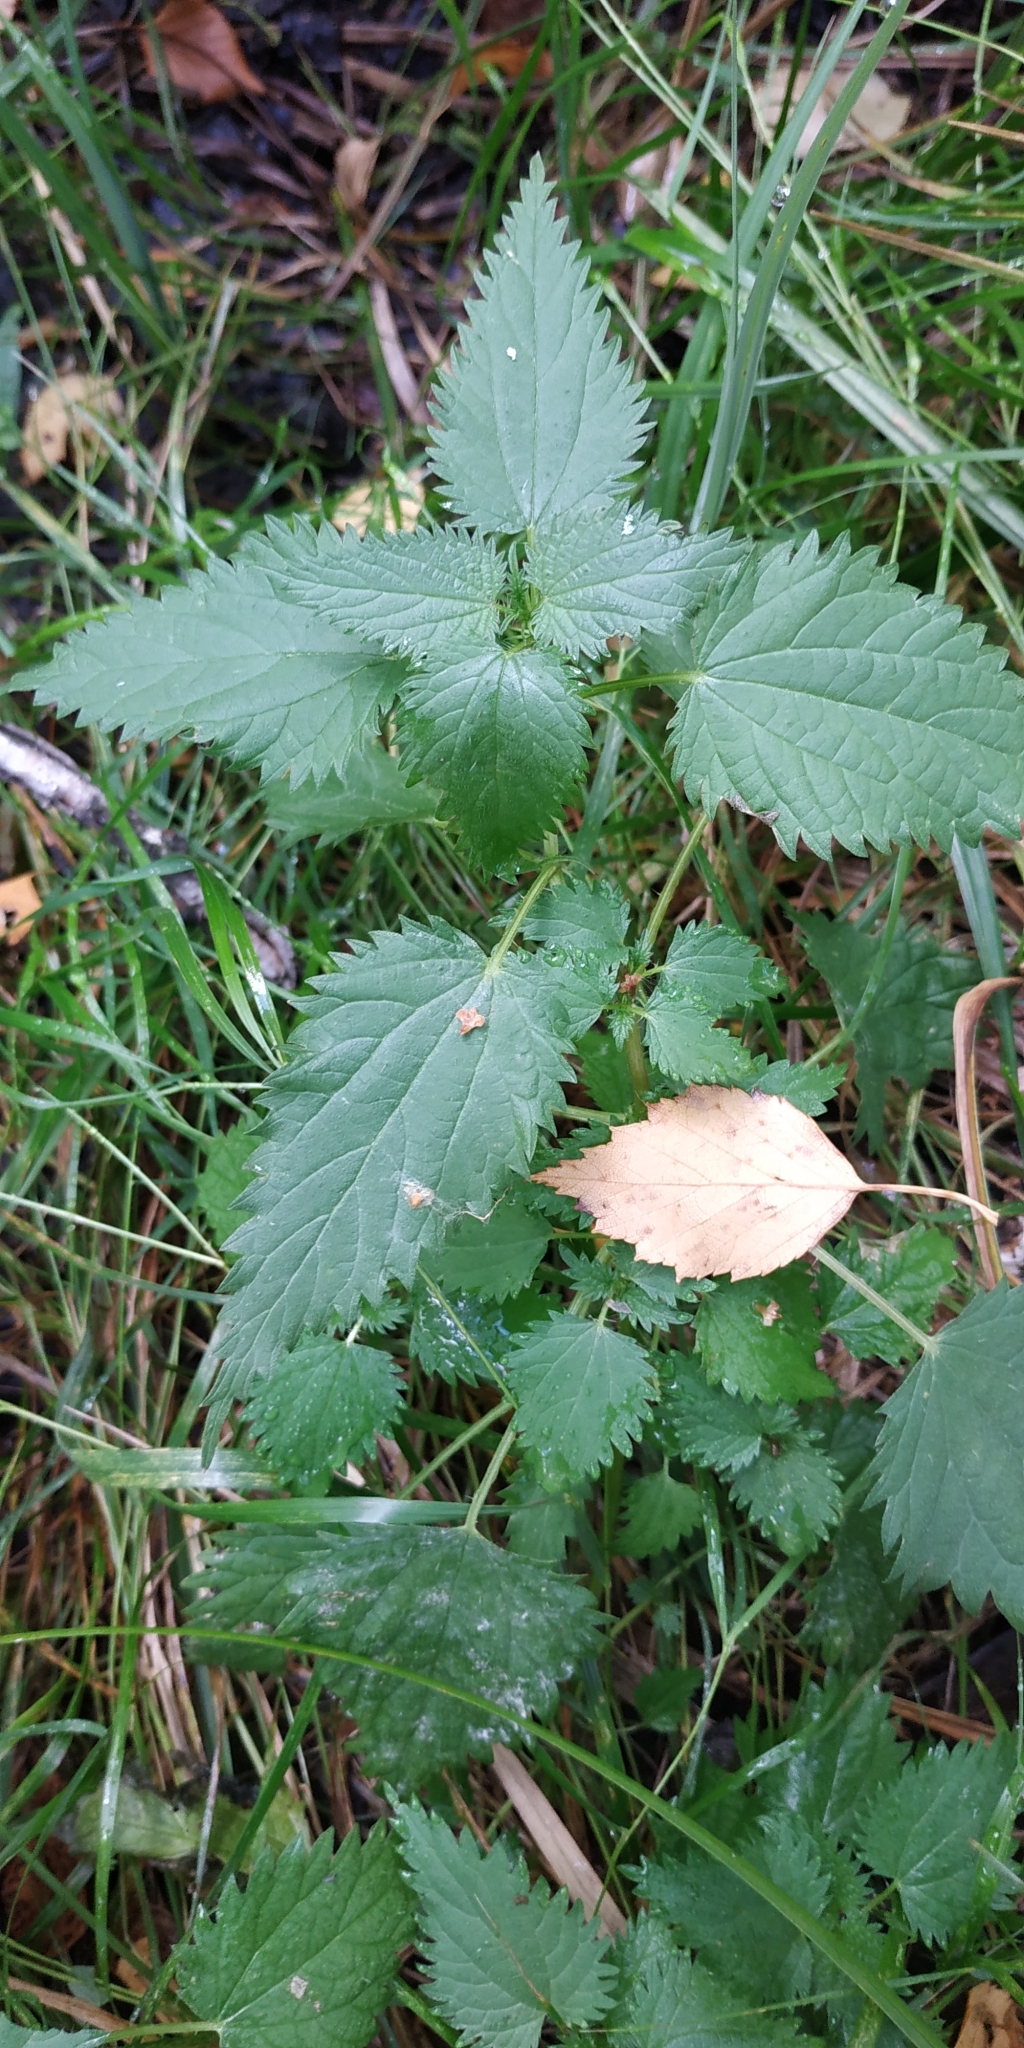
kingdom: Plantae
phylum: Tracheophyta
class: Magnoliopsida
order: Rosales
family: Urticaceae
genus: Urtica
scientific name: Urtica dioica
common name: Common nettle
